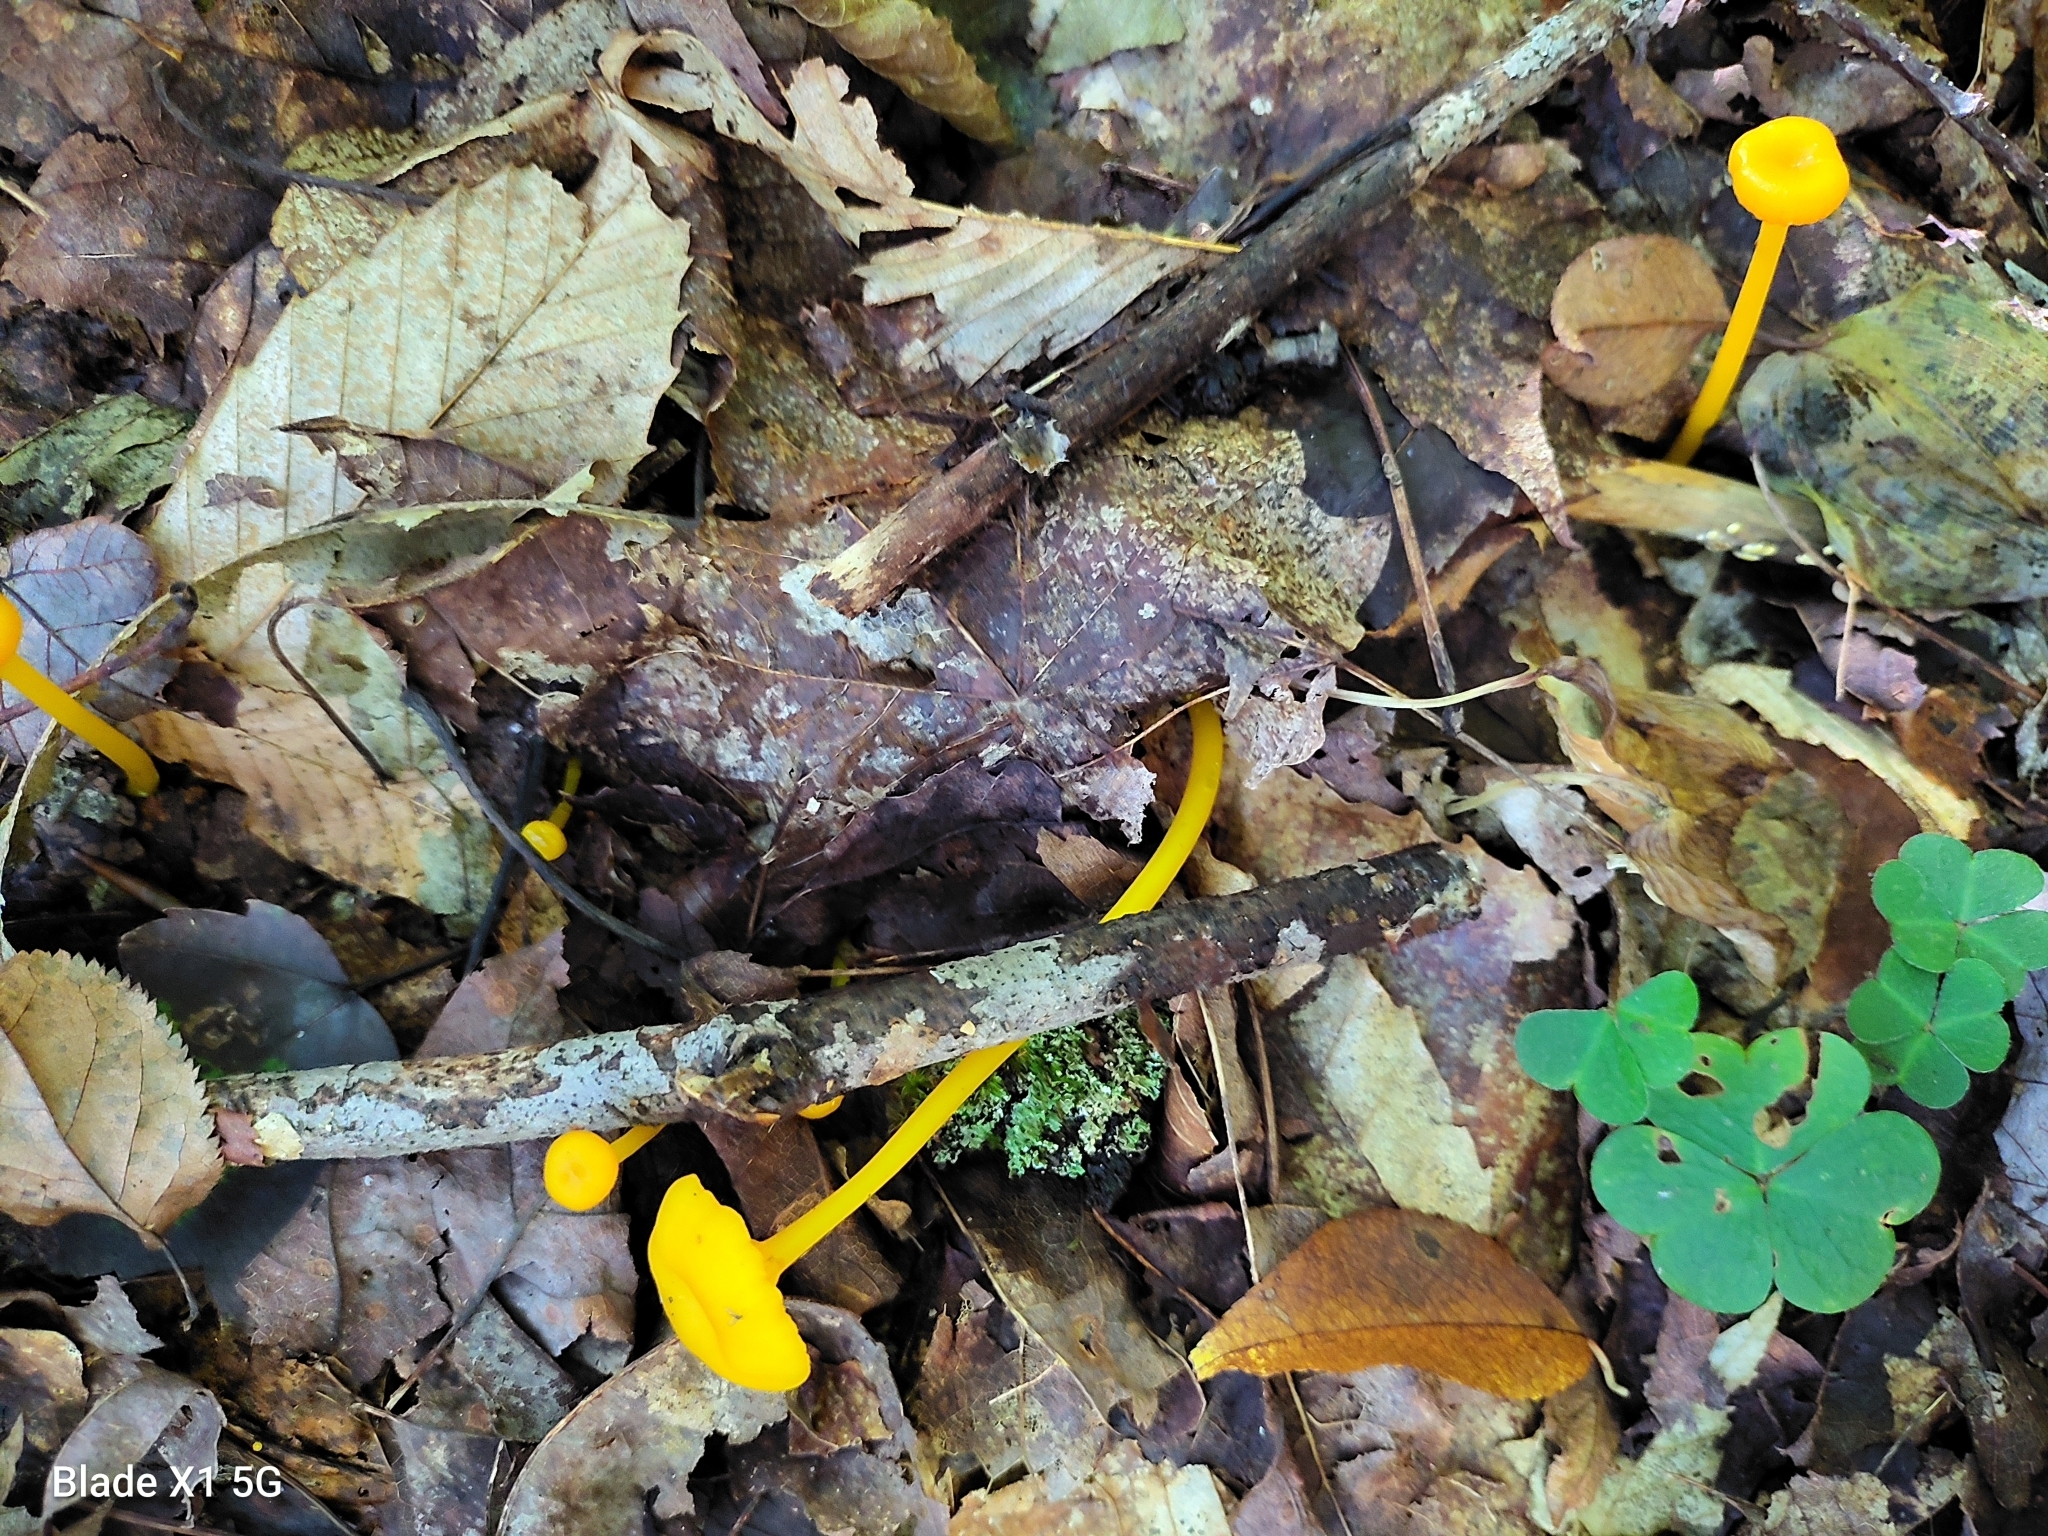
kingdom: Fungi
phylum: Basidiomycota
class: Agaricomycetes
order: Agaricales
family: Hygrophoraceae
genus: Gloioxanthomyces
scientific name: Gloioxanthomyces nitidus
